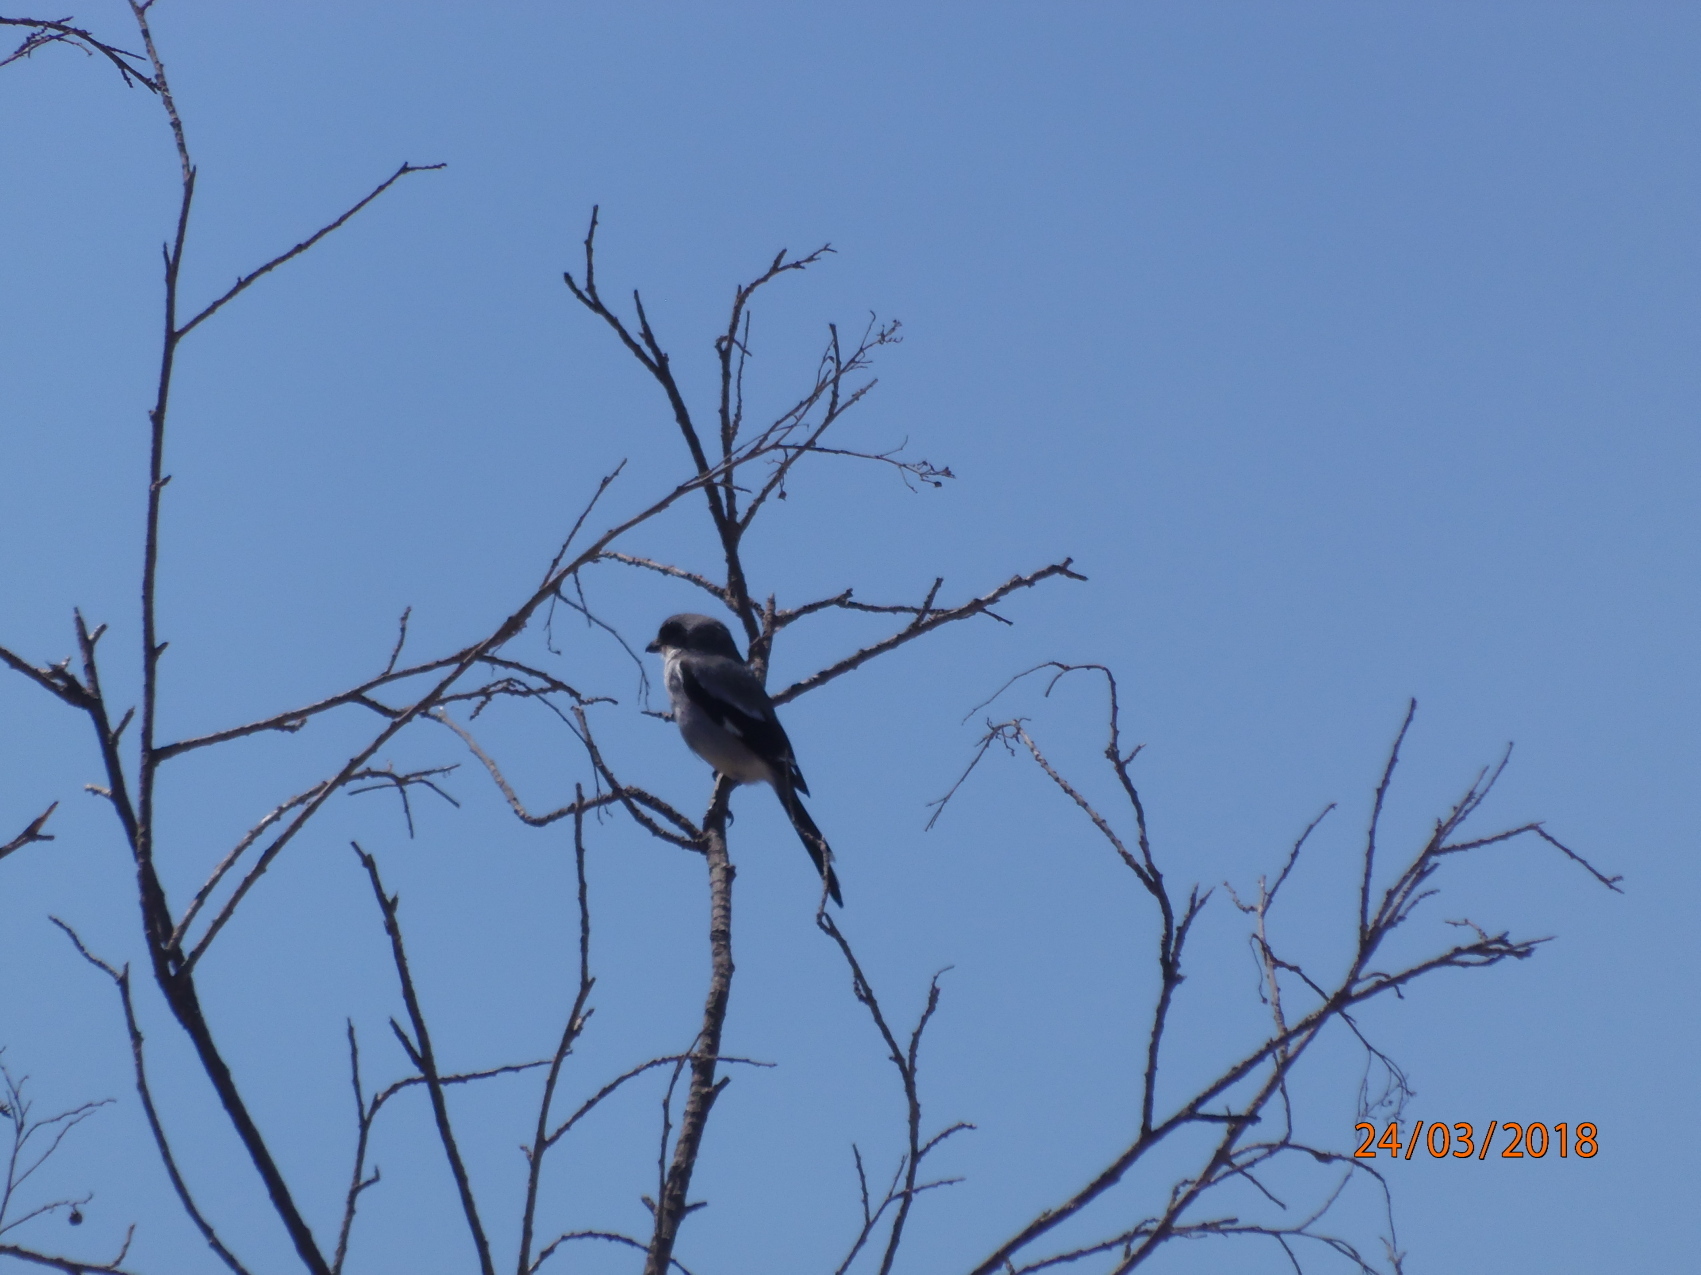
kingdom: Animalia
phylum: Chordata
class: Aves
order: Passeriformes
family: Laniidae
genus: Lanius
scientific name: Lanius ludovicianus
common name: Loggerhead shrike
